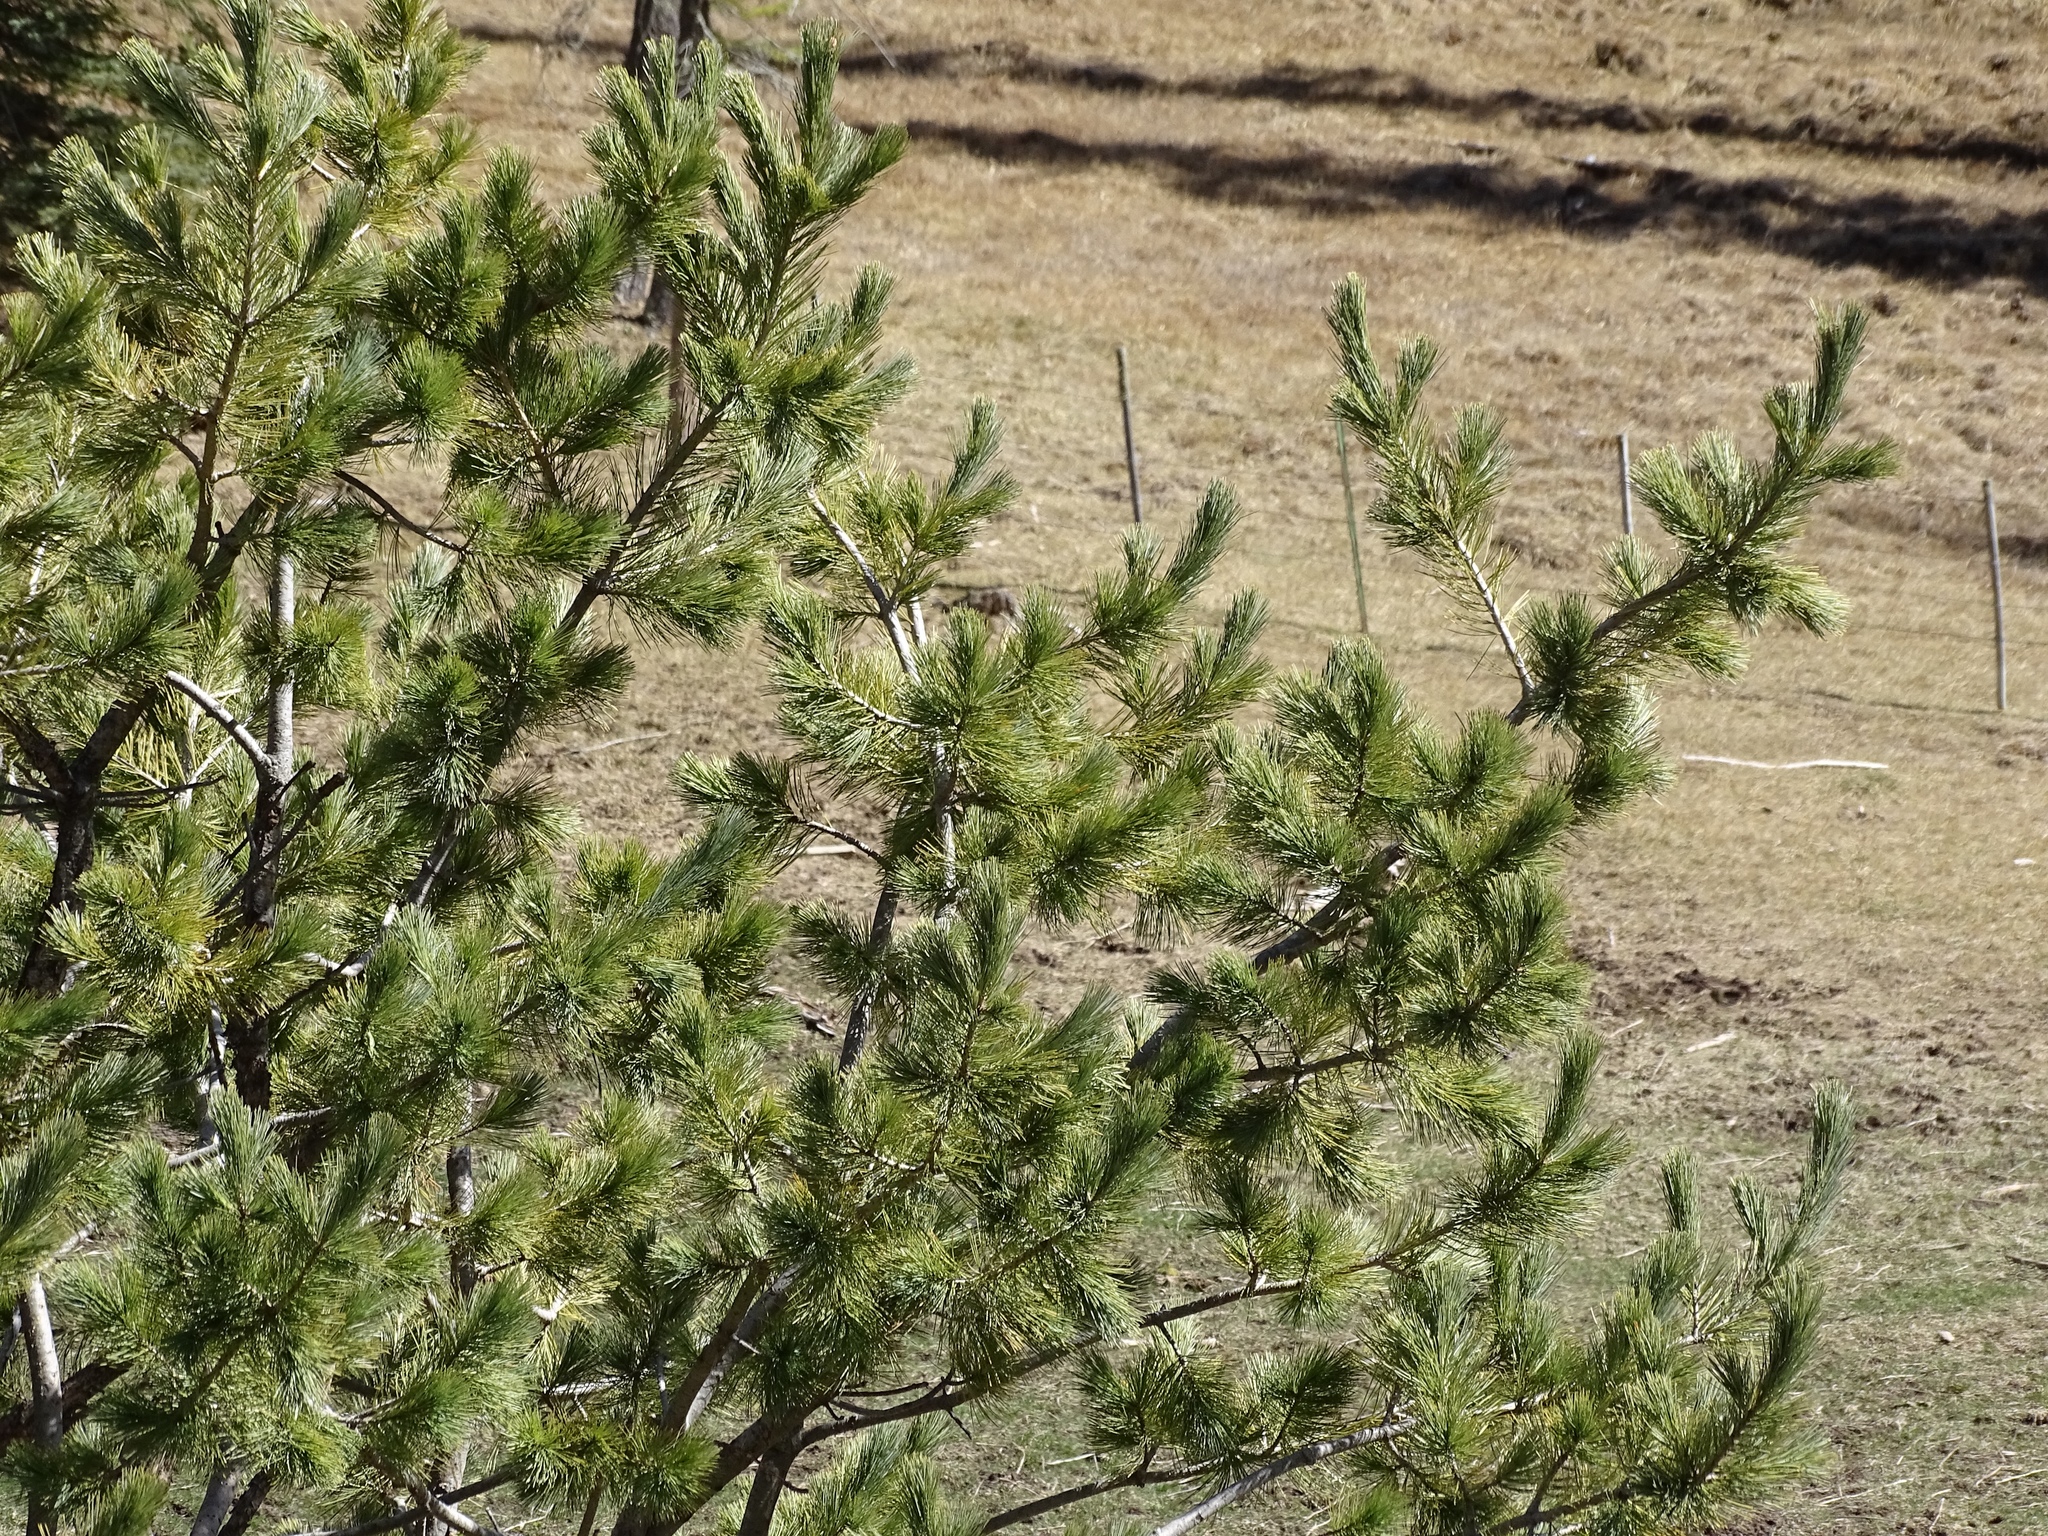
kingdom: Plantae
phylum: Tracheophyta
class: Pinopsida
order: Pinales
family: Pinaceae
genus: Pinus
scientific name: Pinus strobiformis
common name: Southwestern white pine
